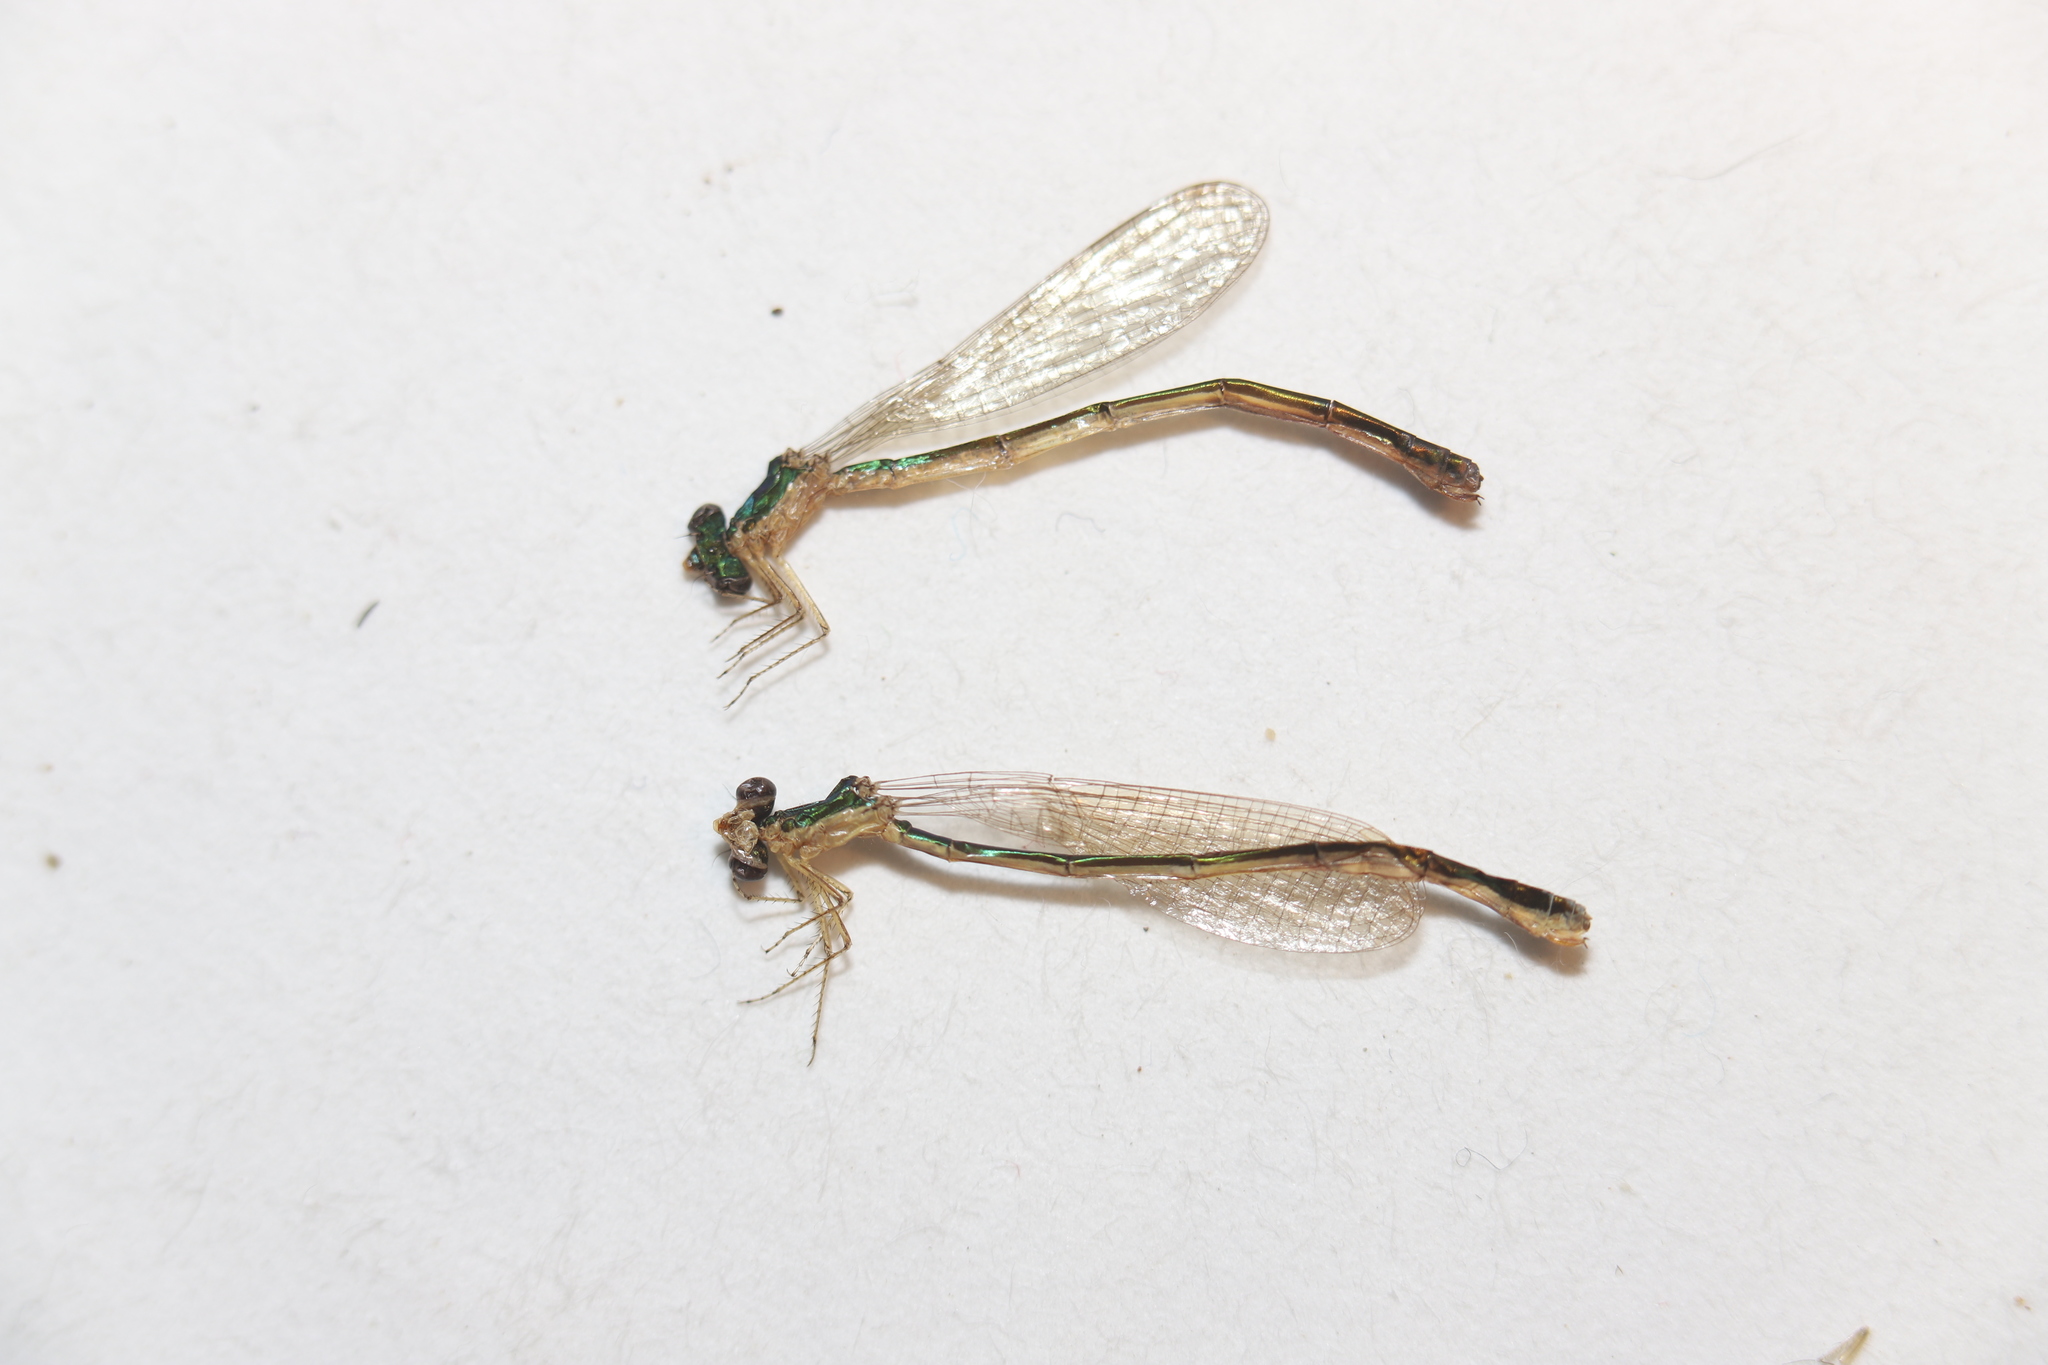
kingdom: Animalia
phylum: Arthropoda
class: Insecta
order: Odonata
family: Coenagrionidae
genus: Nehalennia
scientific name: Nehalennia irene
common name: Sedge sprite
